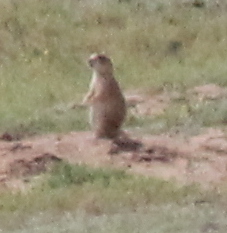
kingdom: Animalia
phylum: Chordata
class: Mammalia
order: Rodentia
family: Sciuridae
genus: Cynomys
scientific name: Cynomys ludovicianus
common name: Black-tailed prairie dog
